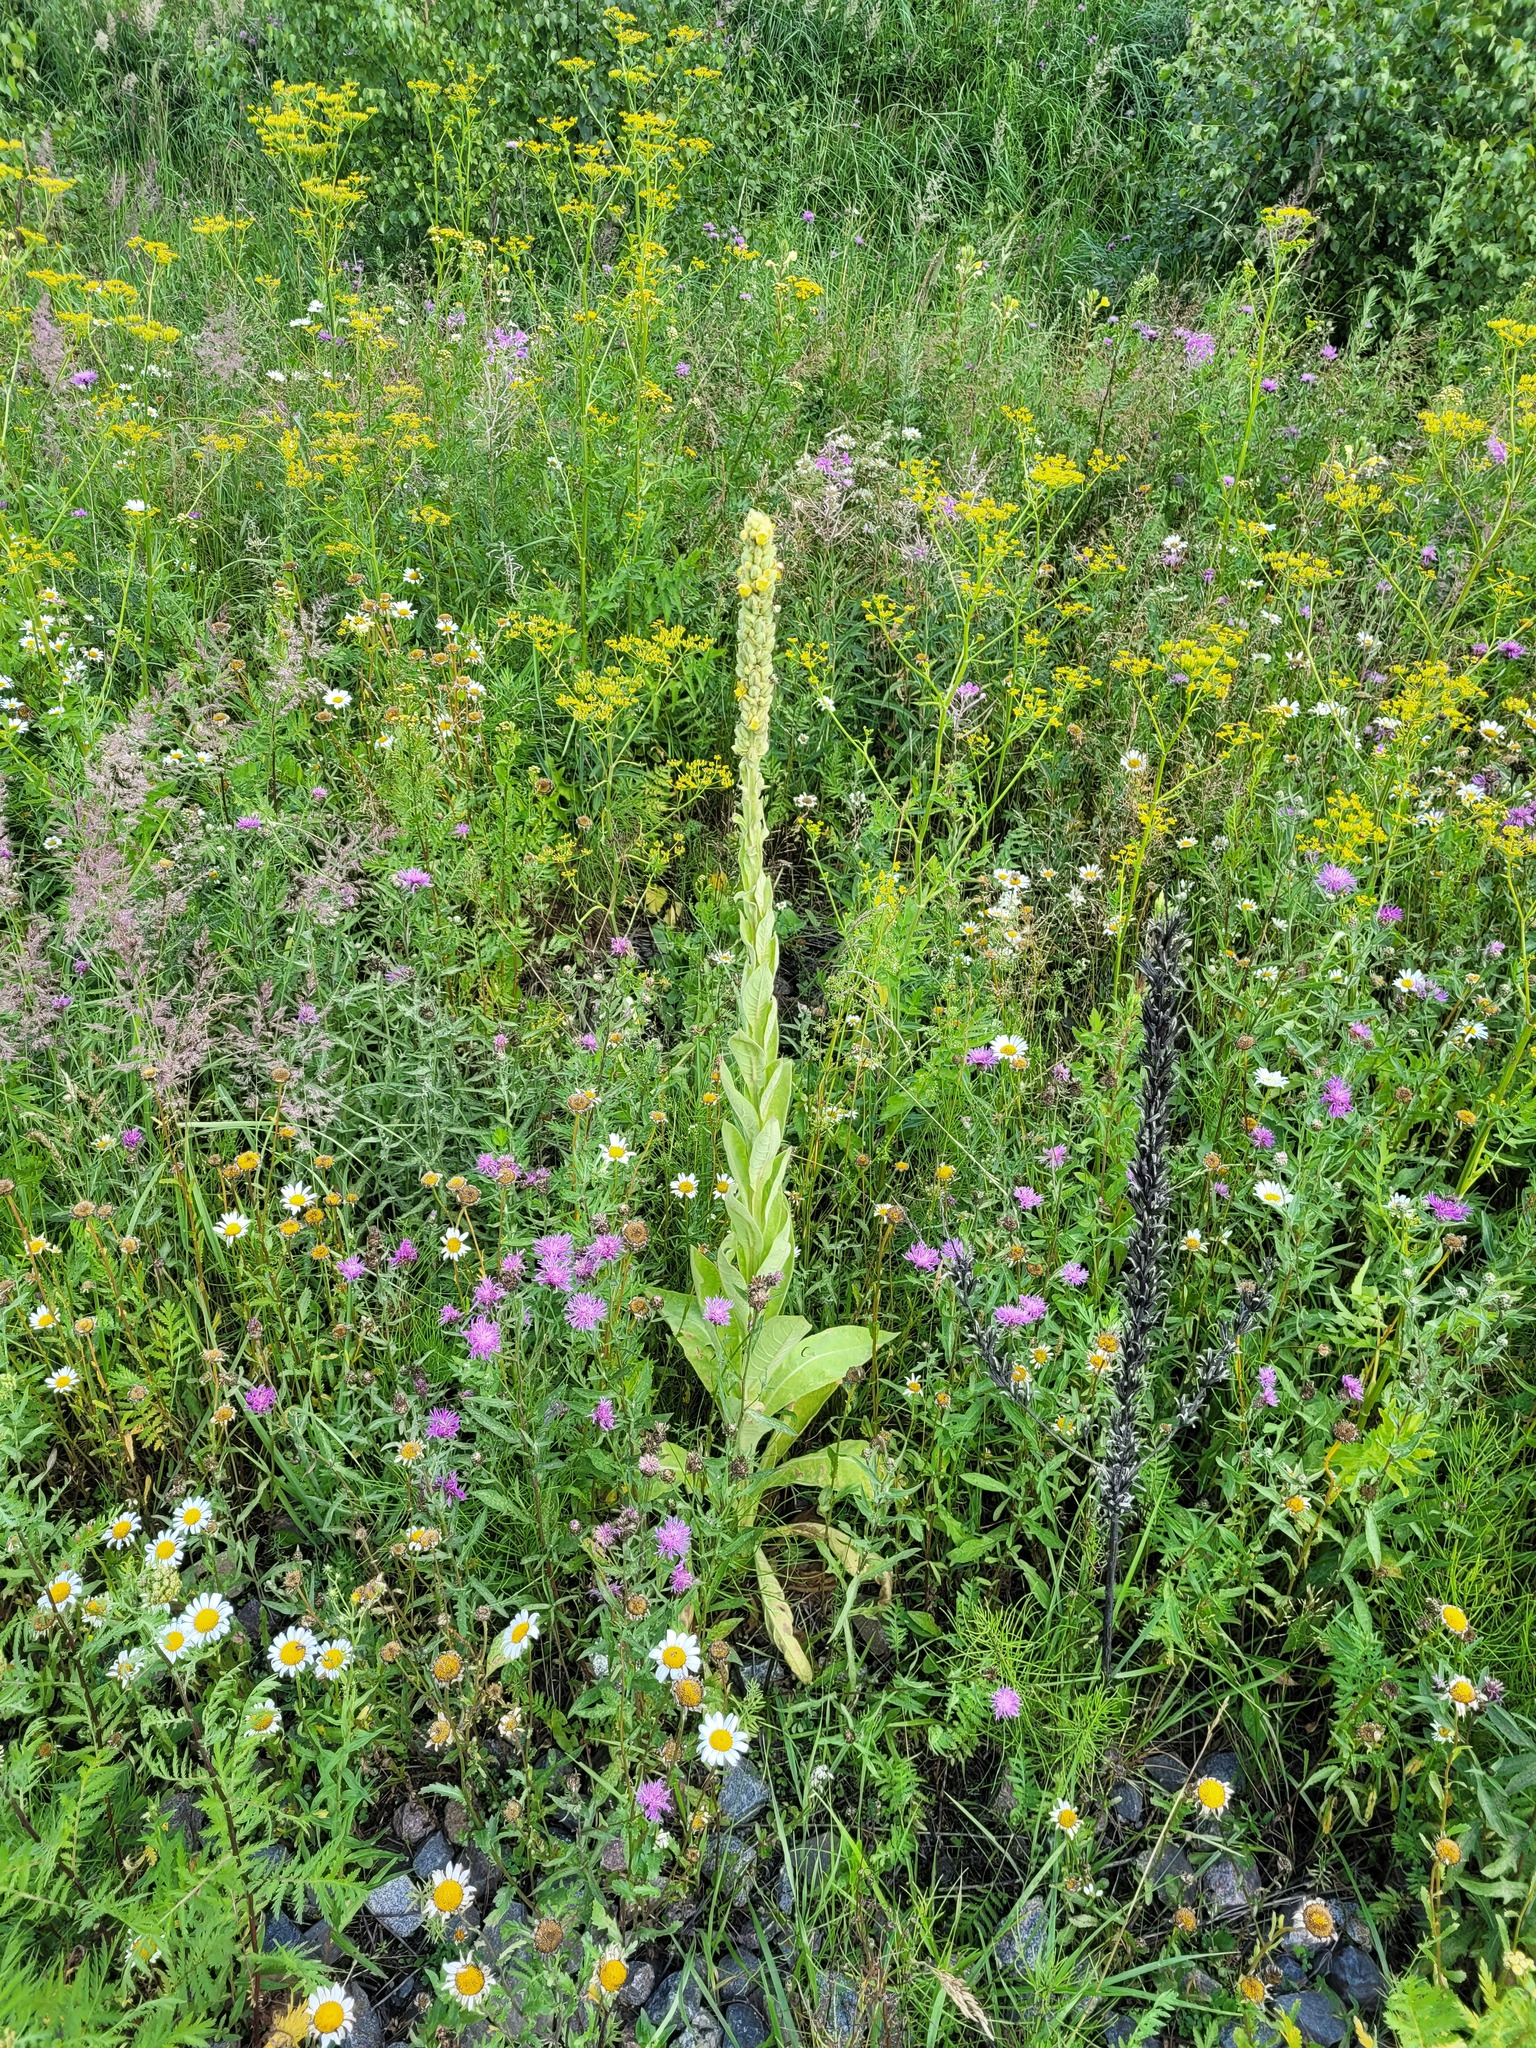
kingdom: Plantae
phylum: Tracheophyta
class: Magnoliopsida
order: Lamiales
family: Scrophulariaceae
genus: Verbascum
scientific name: Verbascum thapsus
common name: Common mullein
